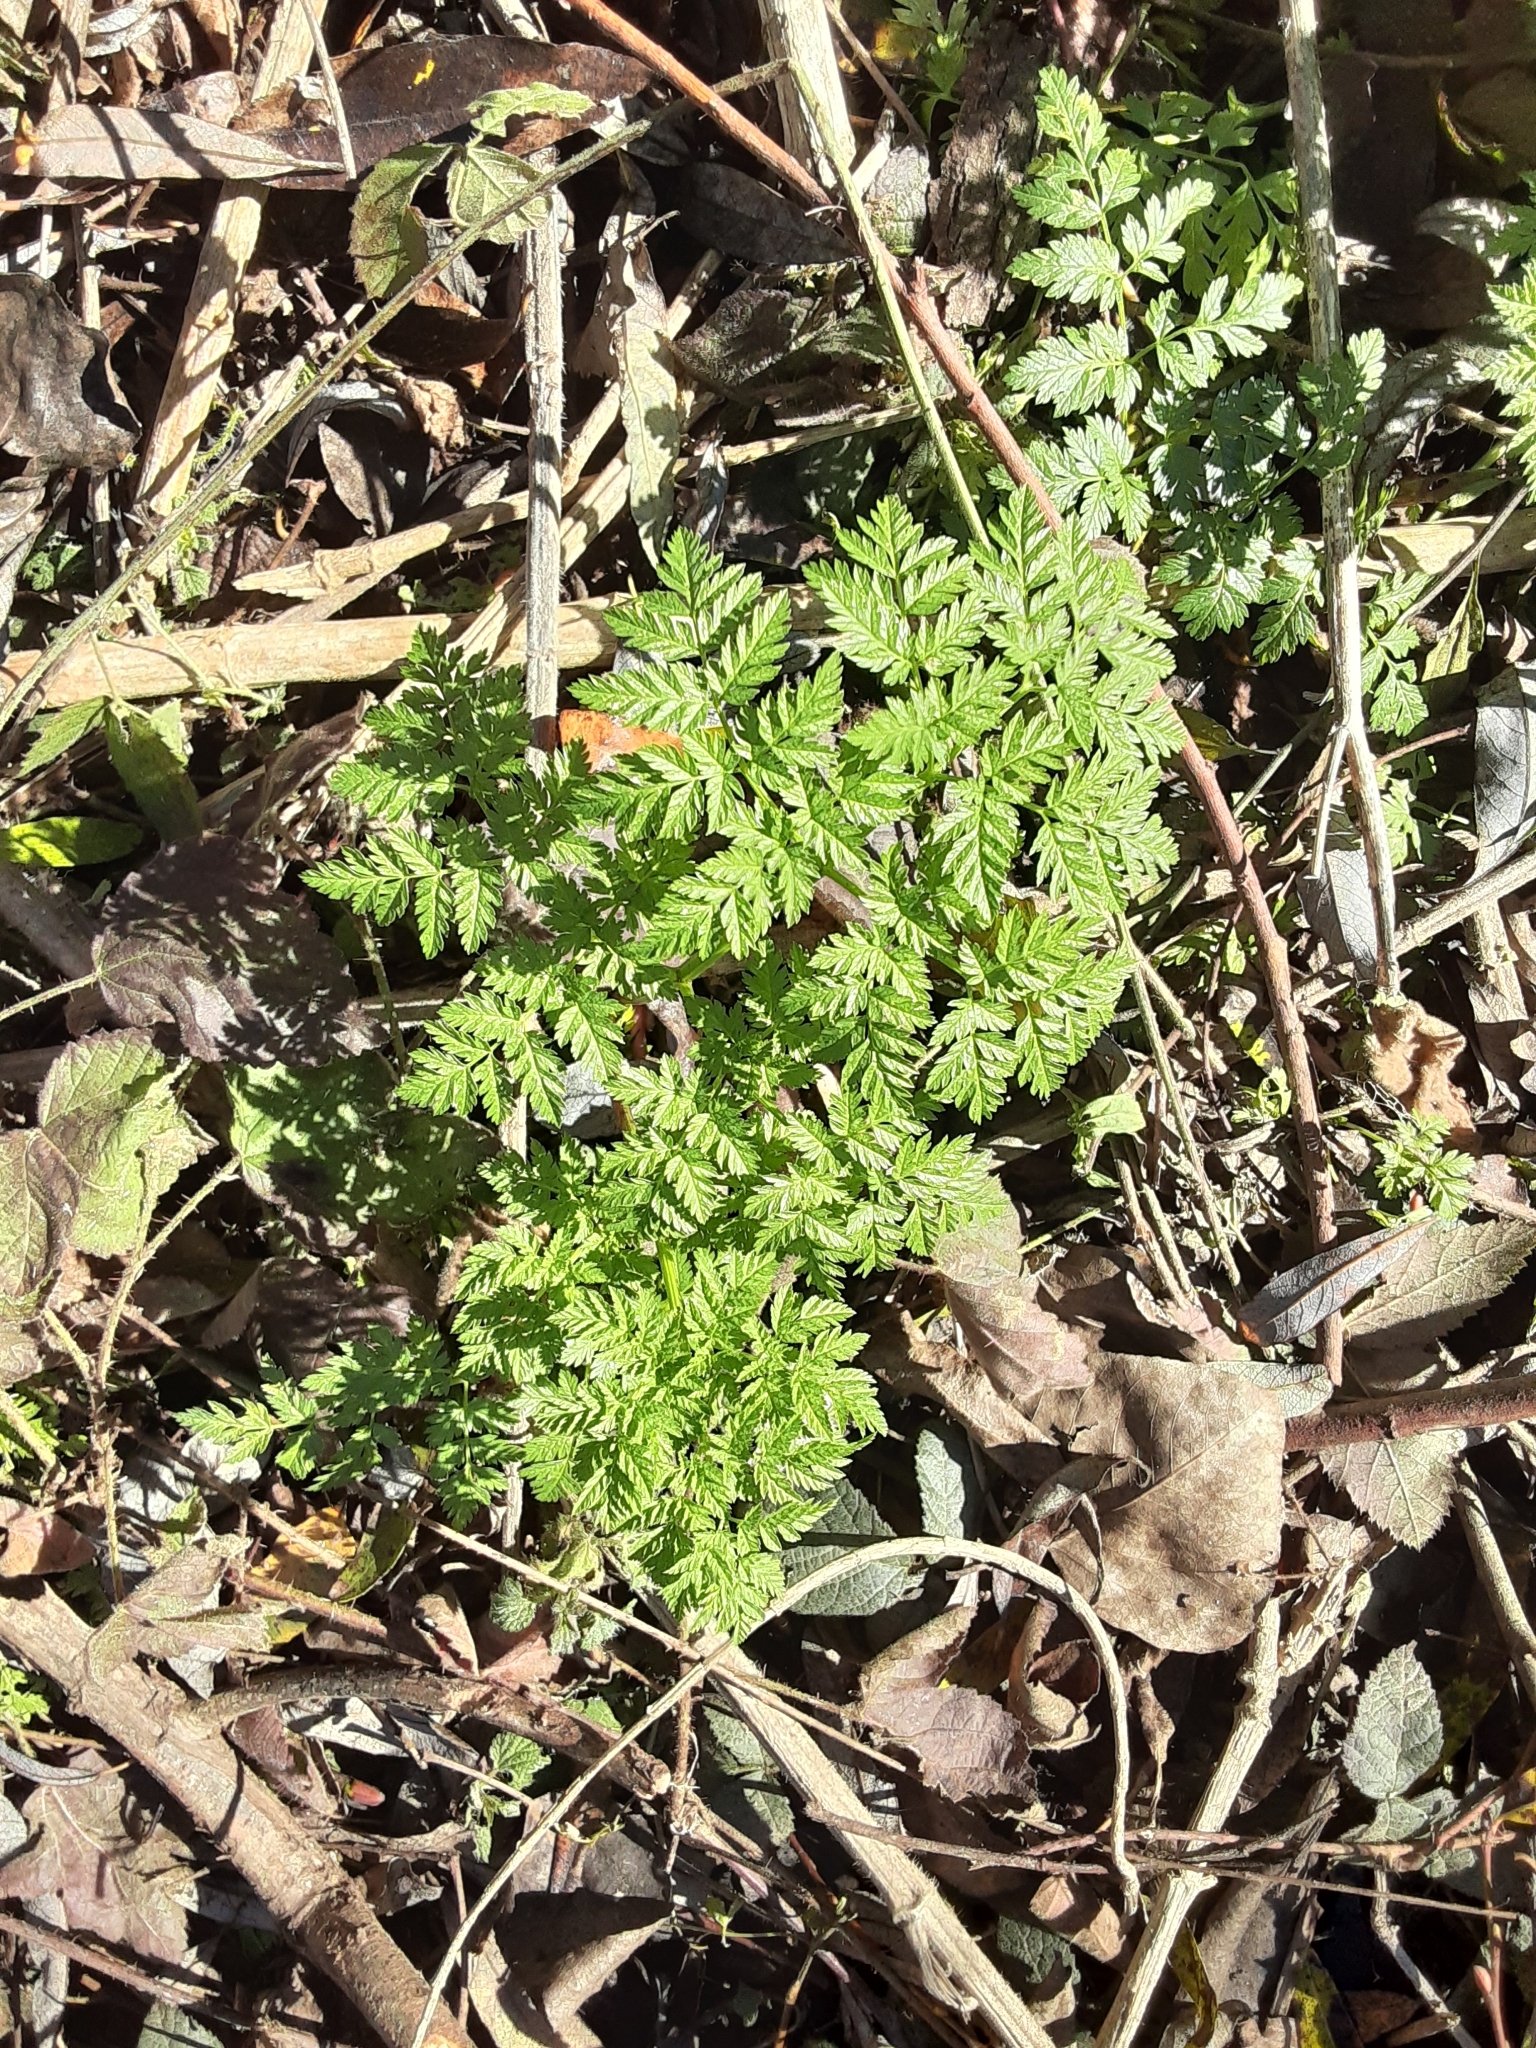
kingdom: Plantae
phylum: Tracheophyta
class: Magnoliopsida
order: Apiales
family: Apiaceae
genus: Conium
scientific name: Conium maculatum
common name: Hemlock
